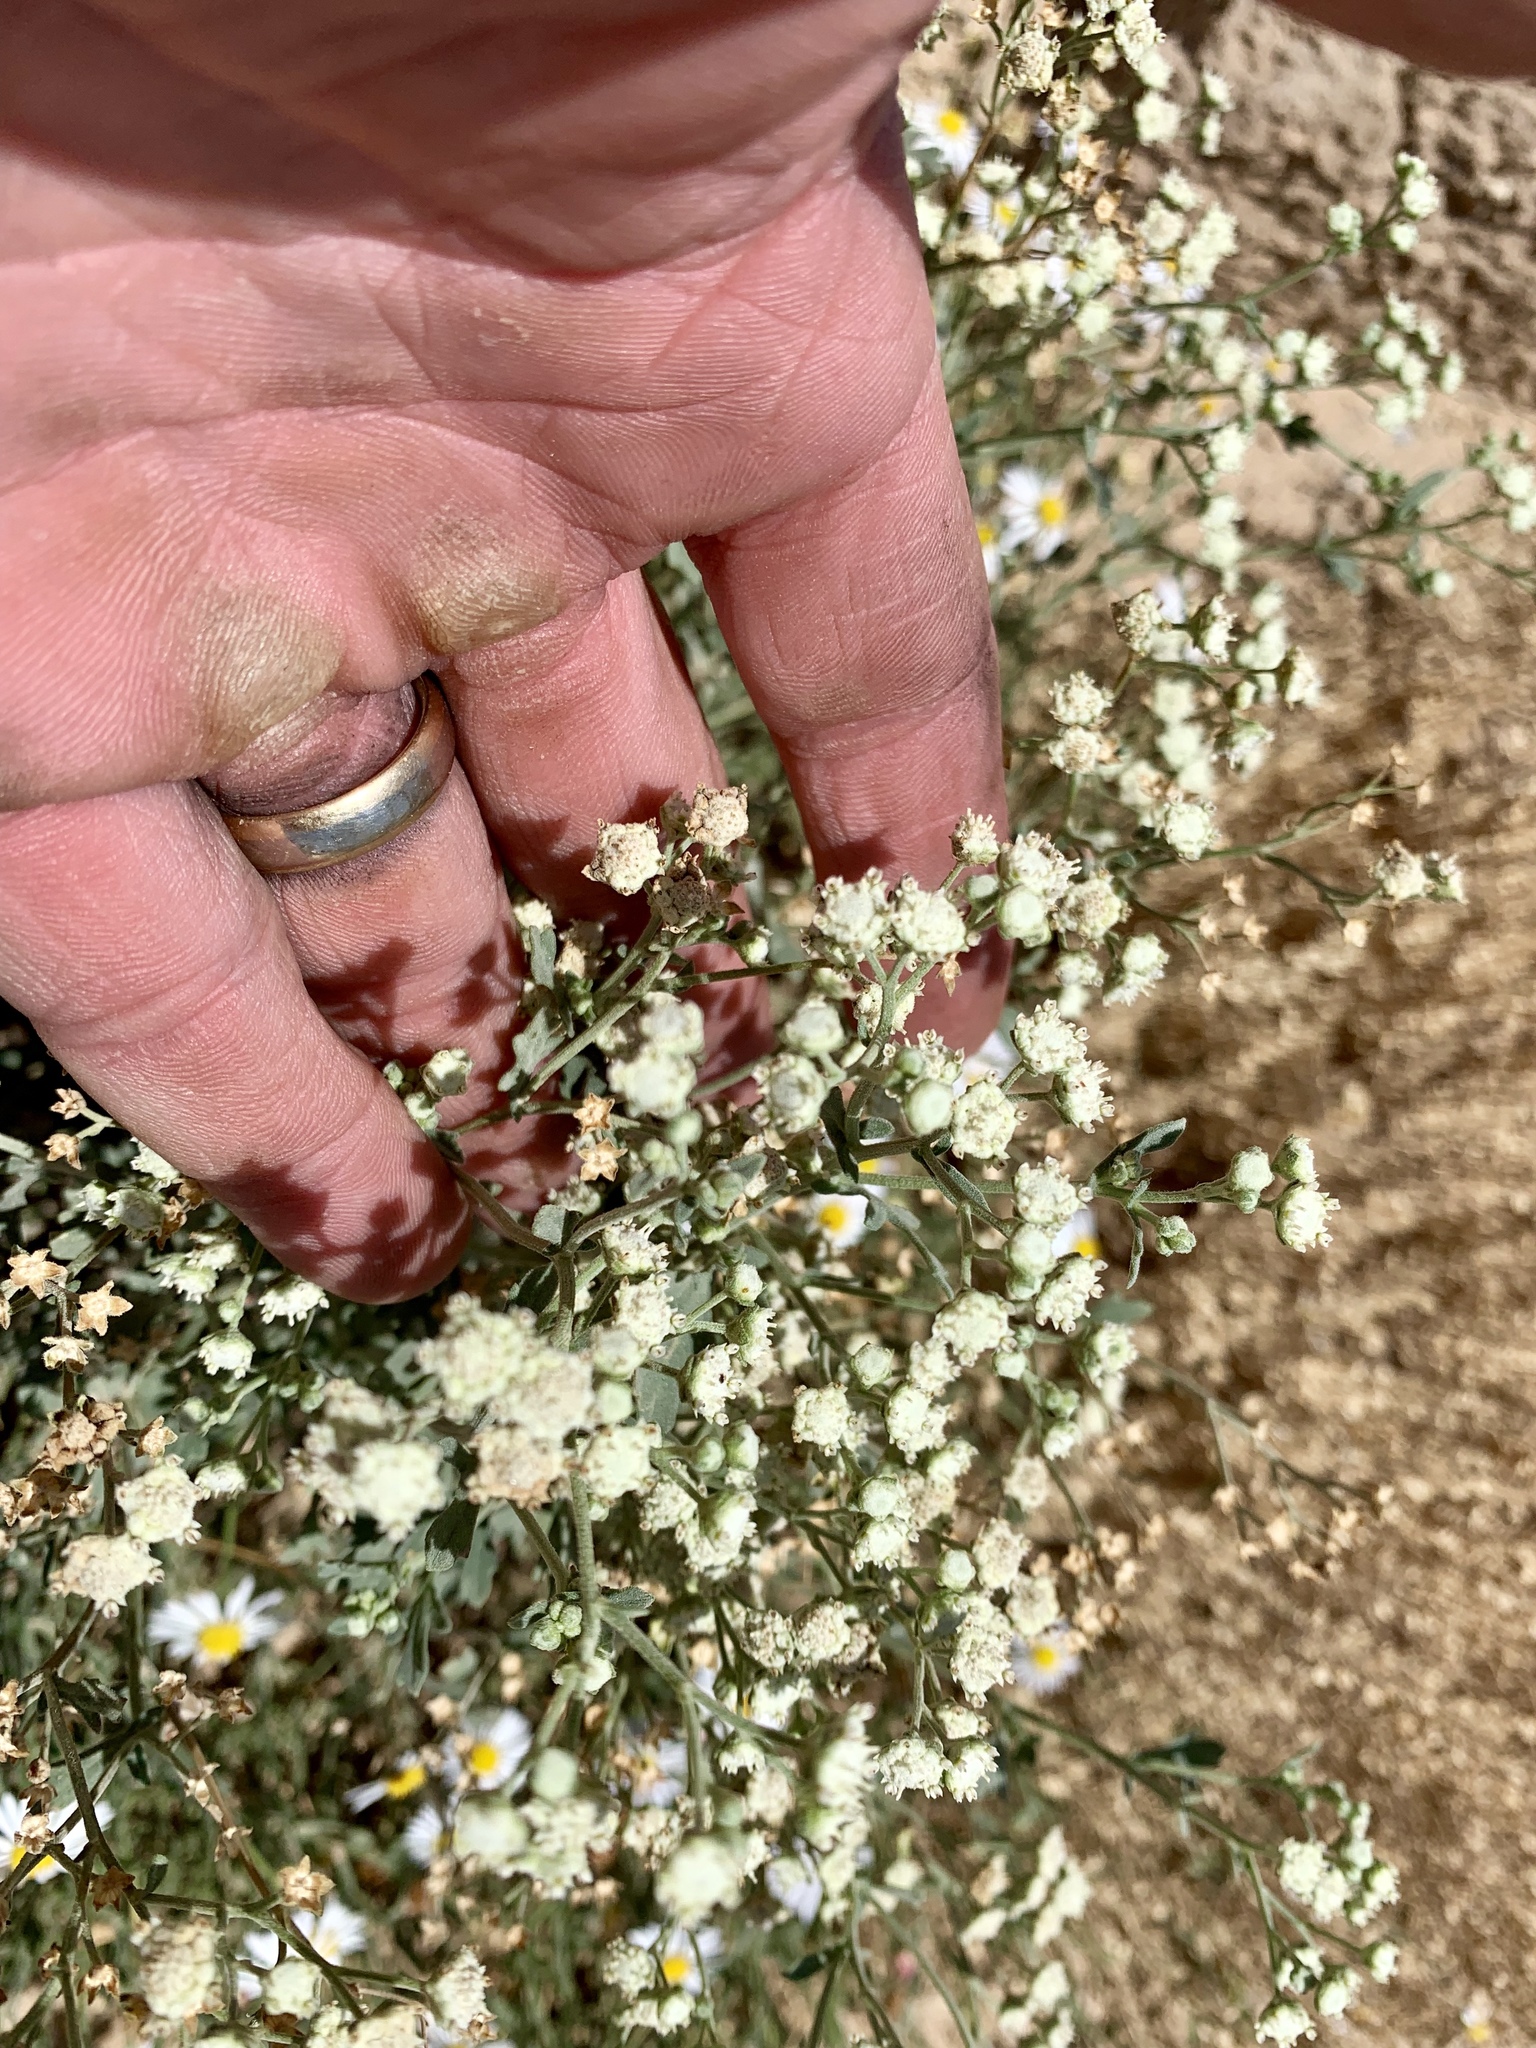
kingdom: Plantae
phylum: Tracheophyta
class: Magnoliopsida
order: Asterales
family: Asteraceae
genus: Parthenium
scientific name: Parthenium hysterophorus
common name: Santa maria feverfew
